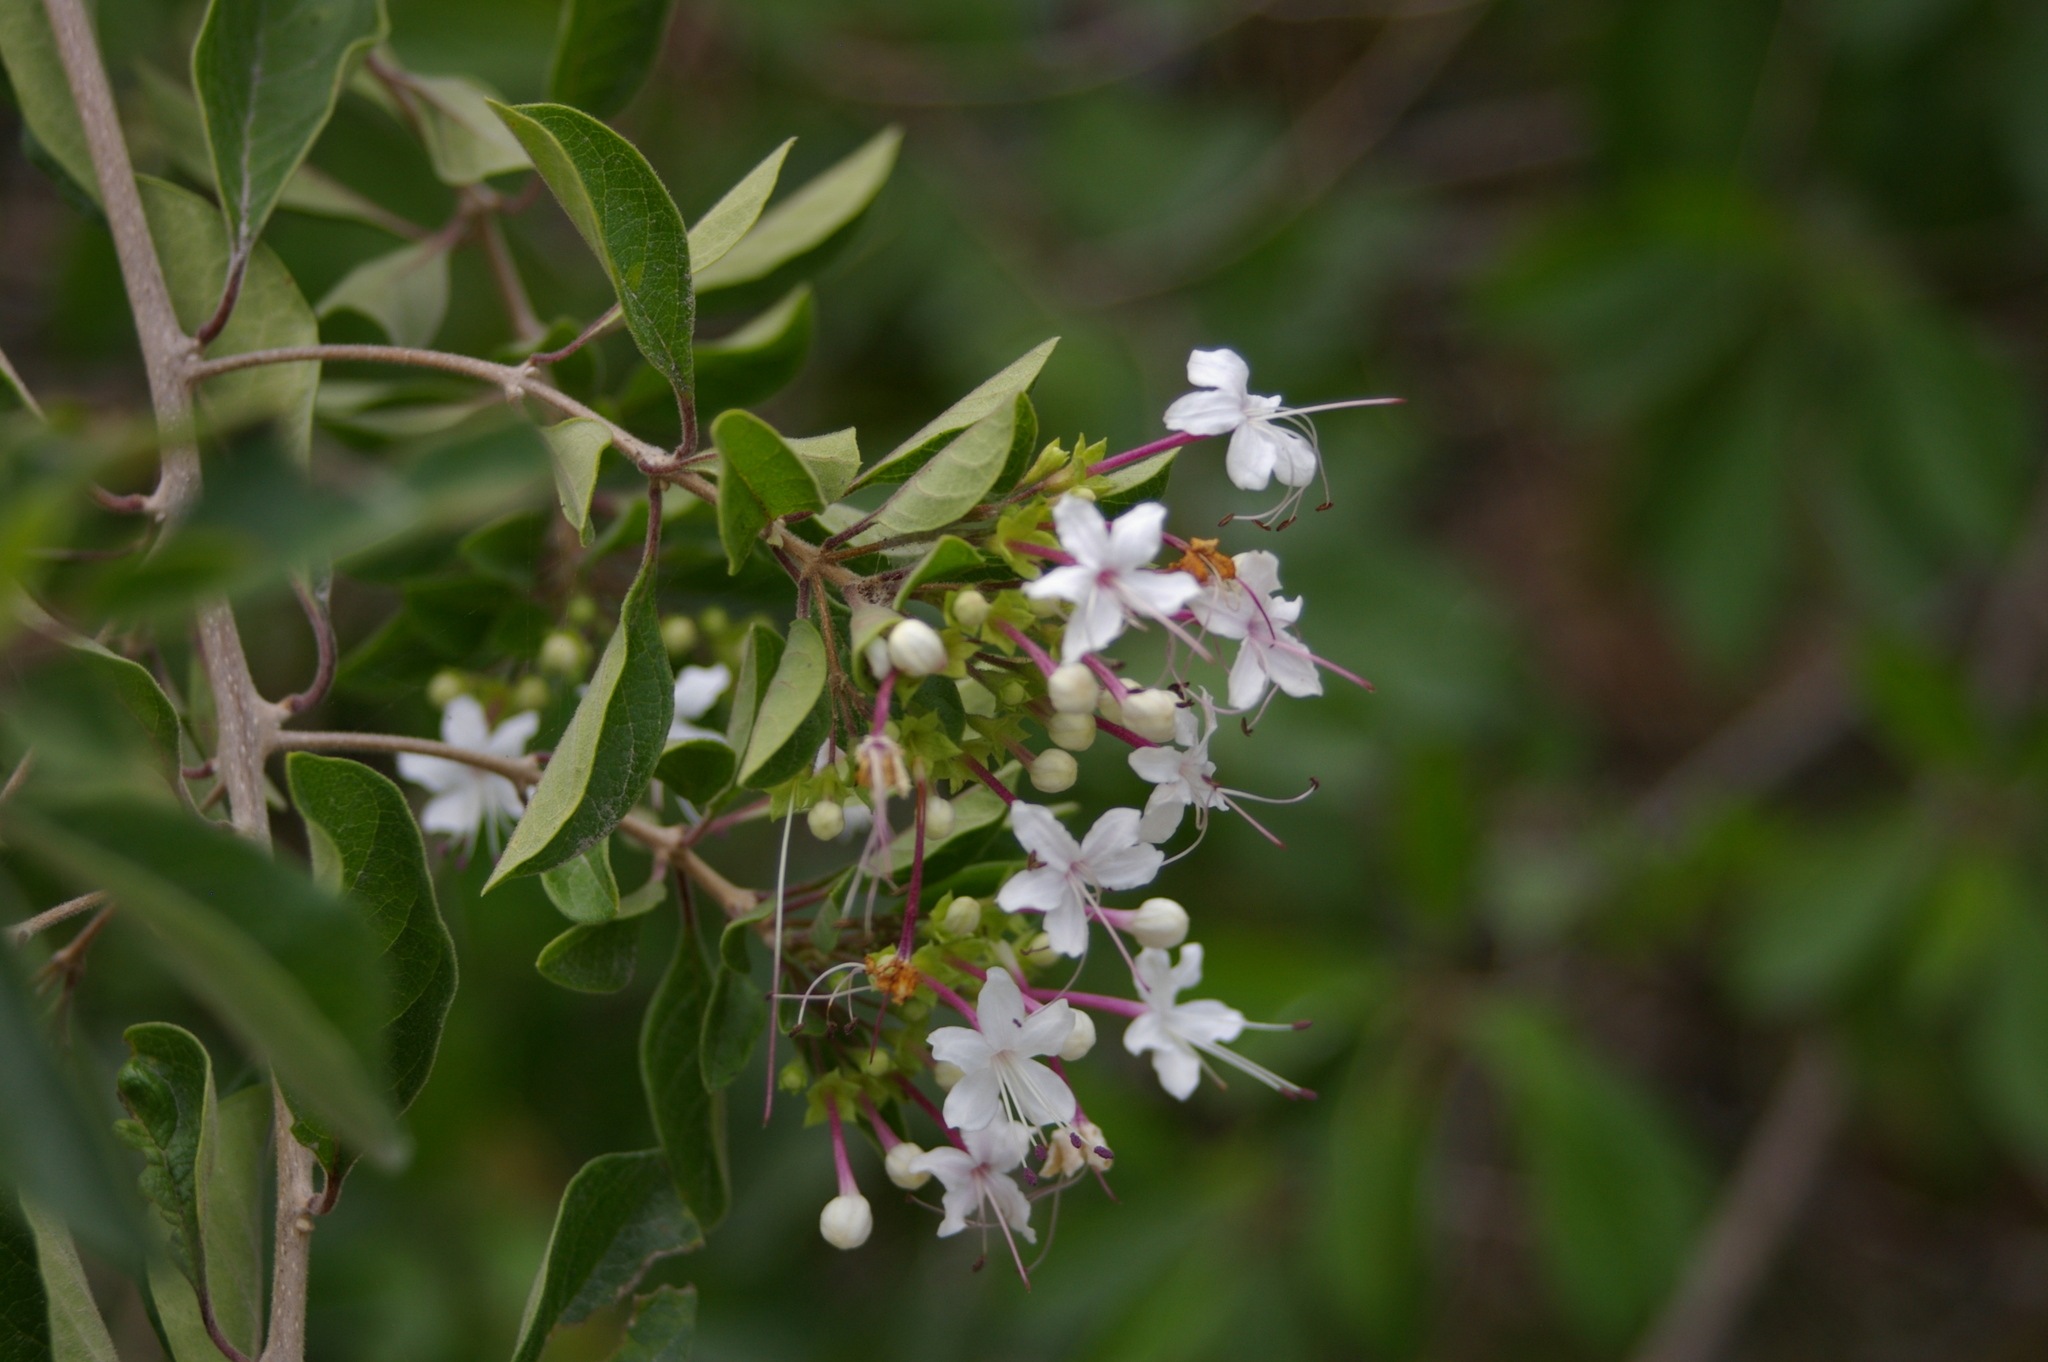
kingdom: Plantae
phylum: Tracheophyta
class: Magnoliopsida
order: Lamiales
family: Lamiaceae
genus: Volkameria
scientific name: Volkameria mollis
